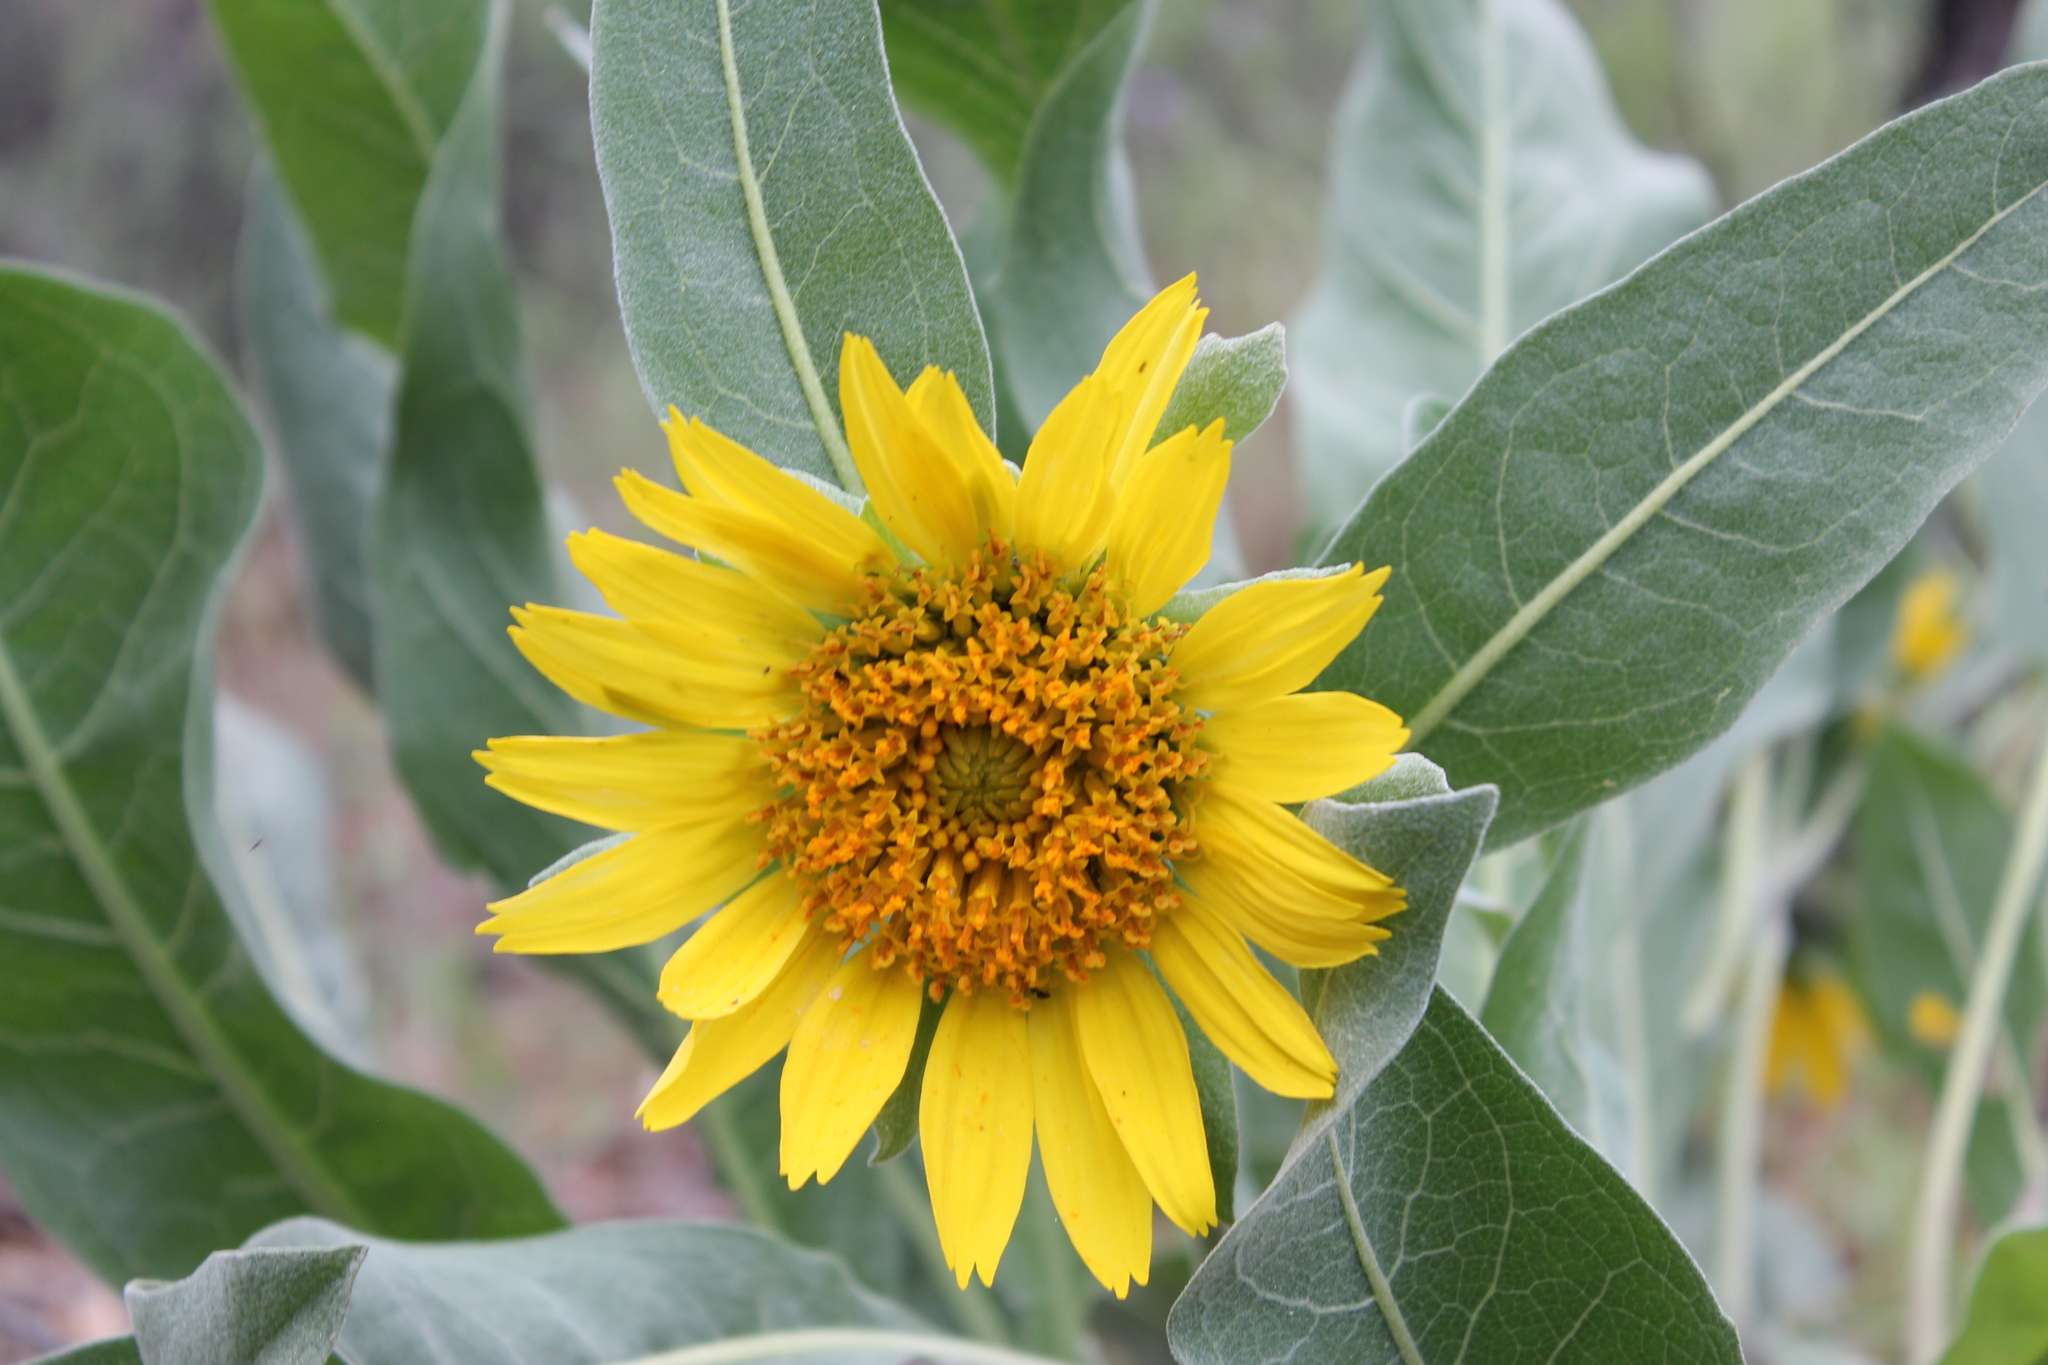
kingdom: Plantae
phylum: Tracheophyta
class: Magnoliopsida
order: Asterales
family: Asteraceae
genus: Wyethia
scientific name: Wyethia helenioides
